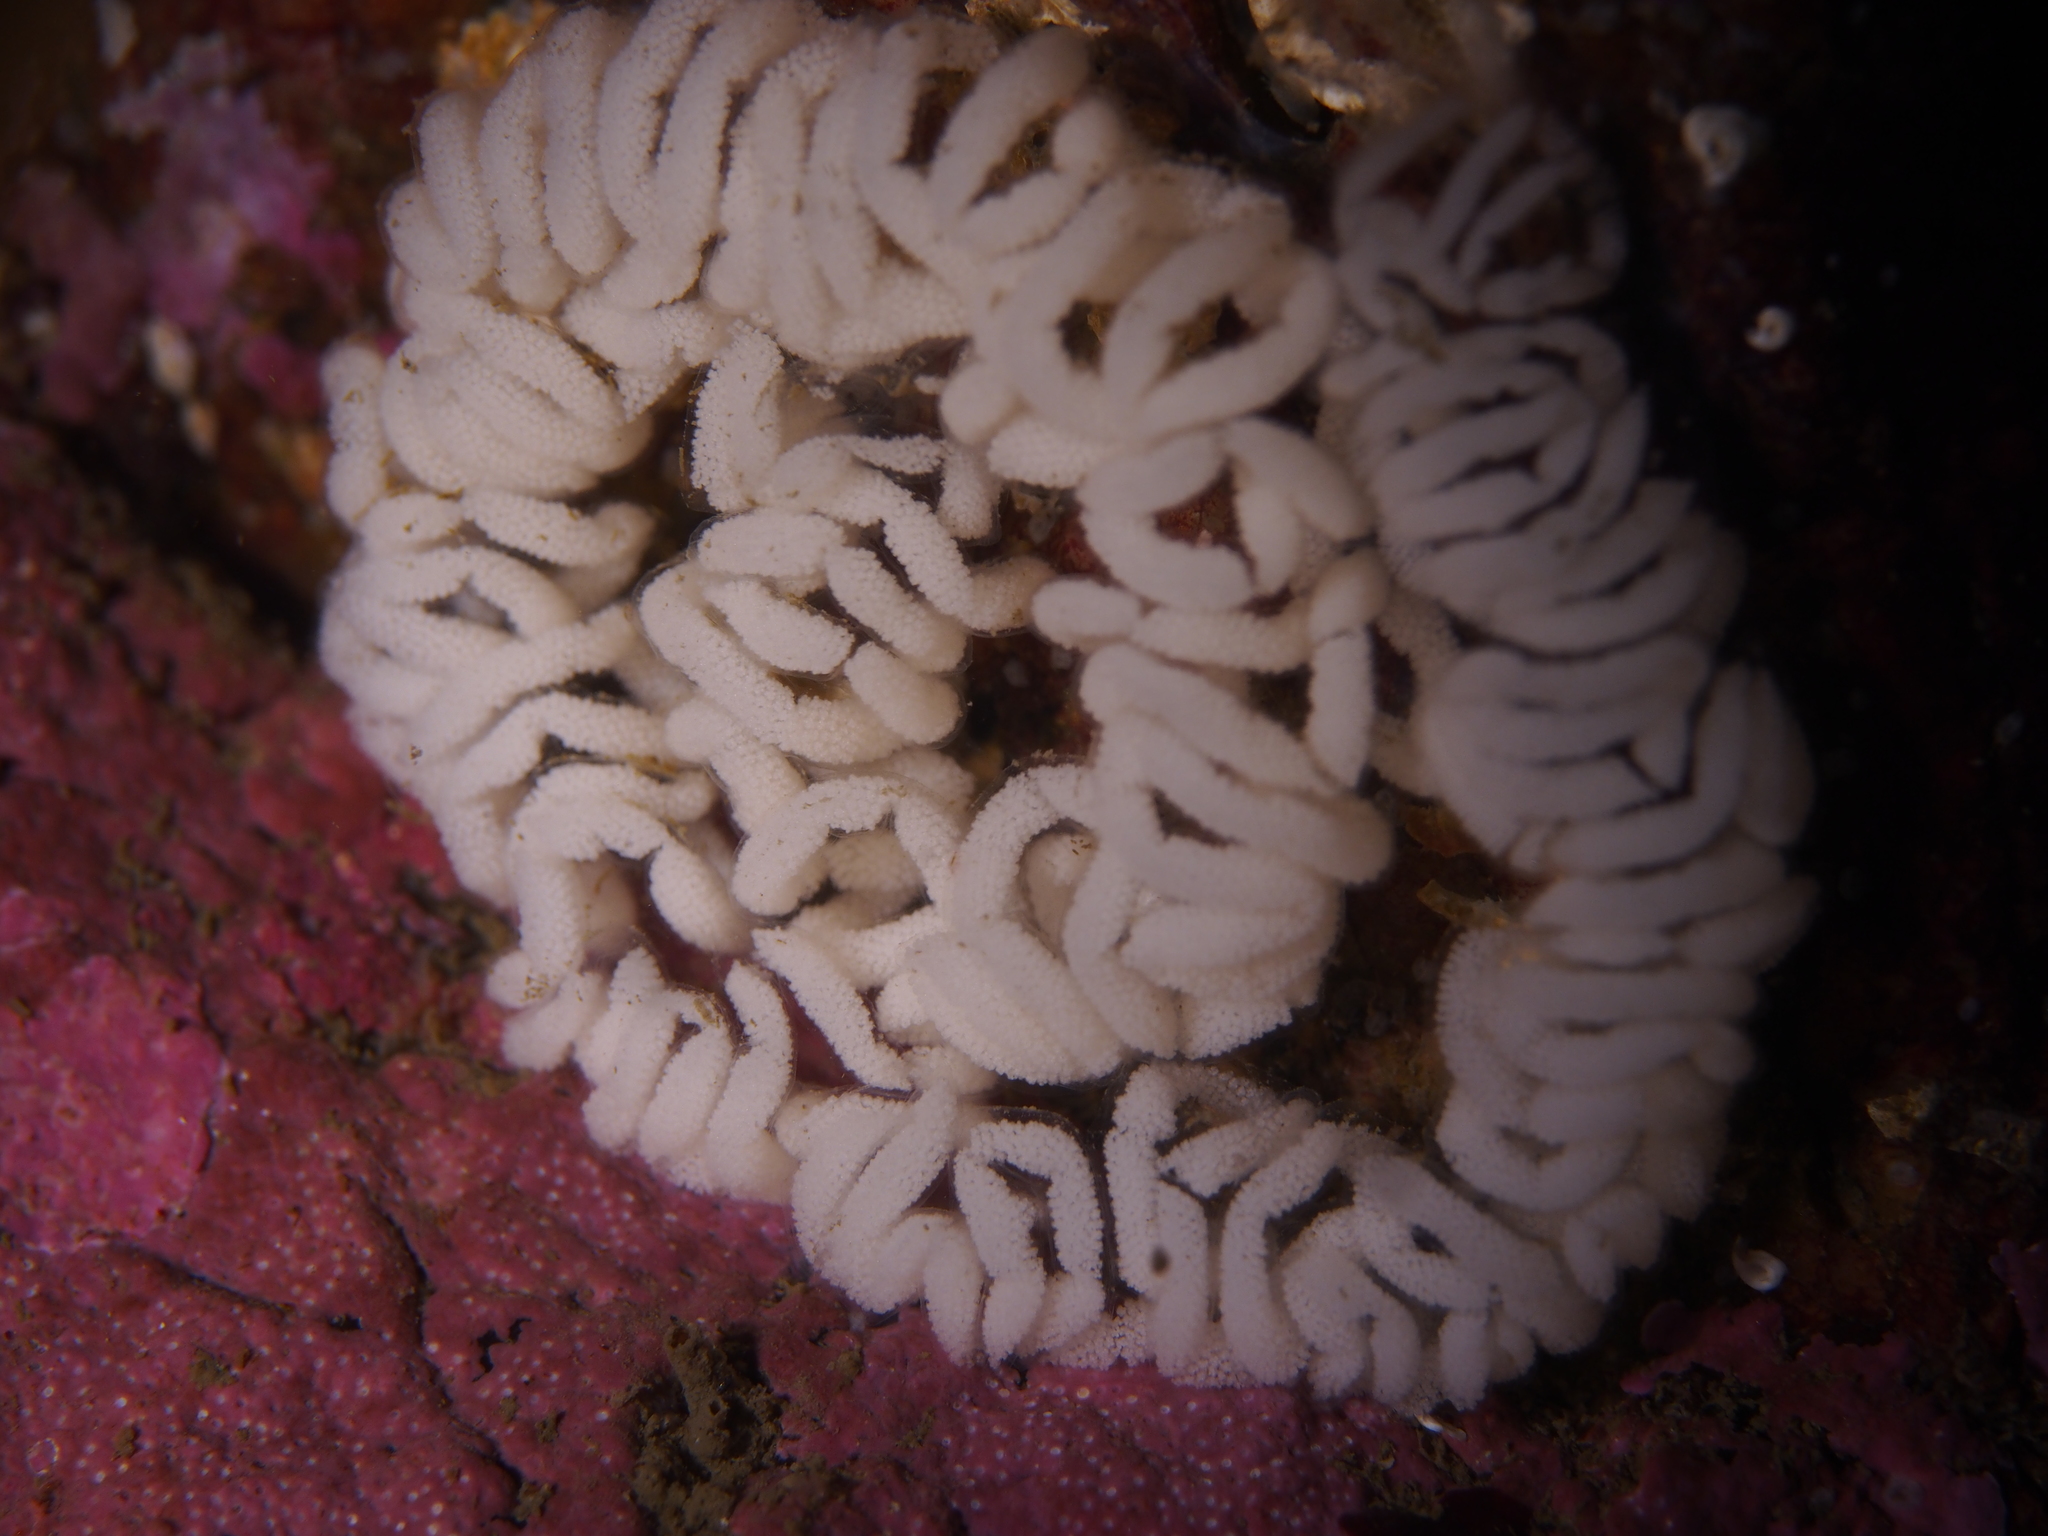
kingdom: Animalia
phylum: Mollusca
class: Gastropoda
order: Nudibranchia
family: Aeolidiidae
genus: Aeolidia
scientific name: Aeolidia papillosa
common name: Common grey sea slug
